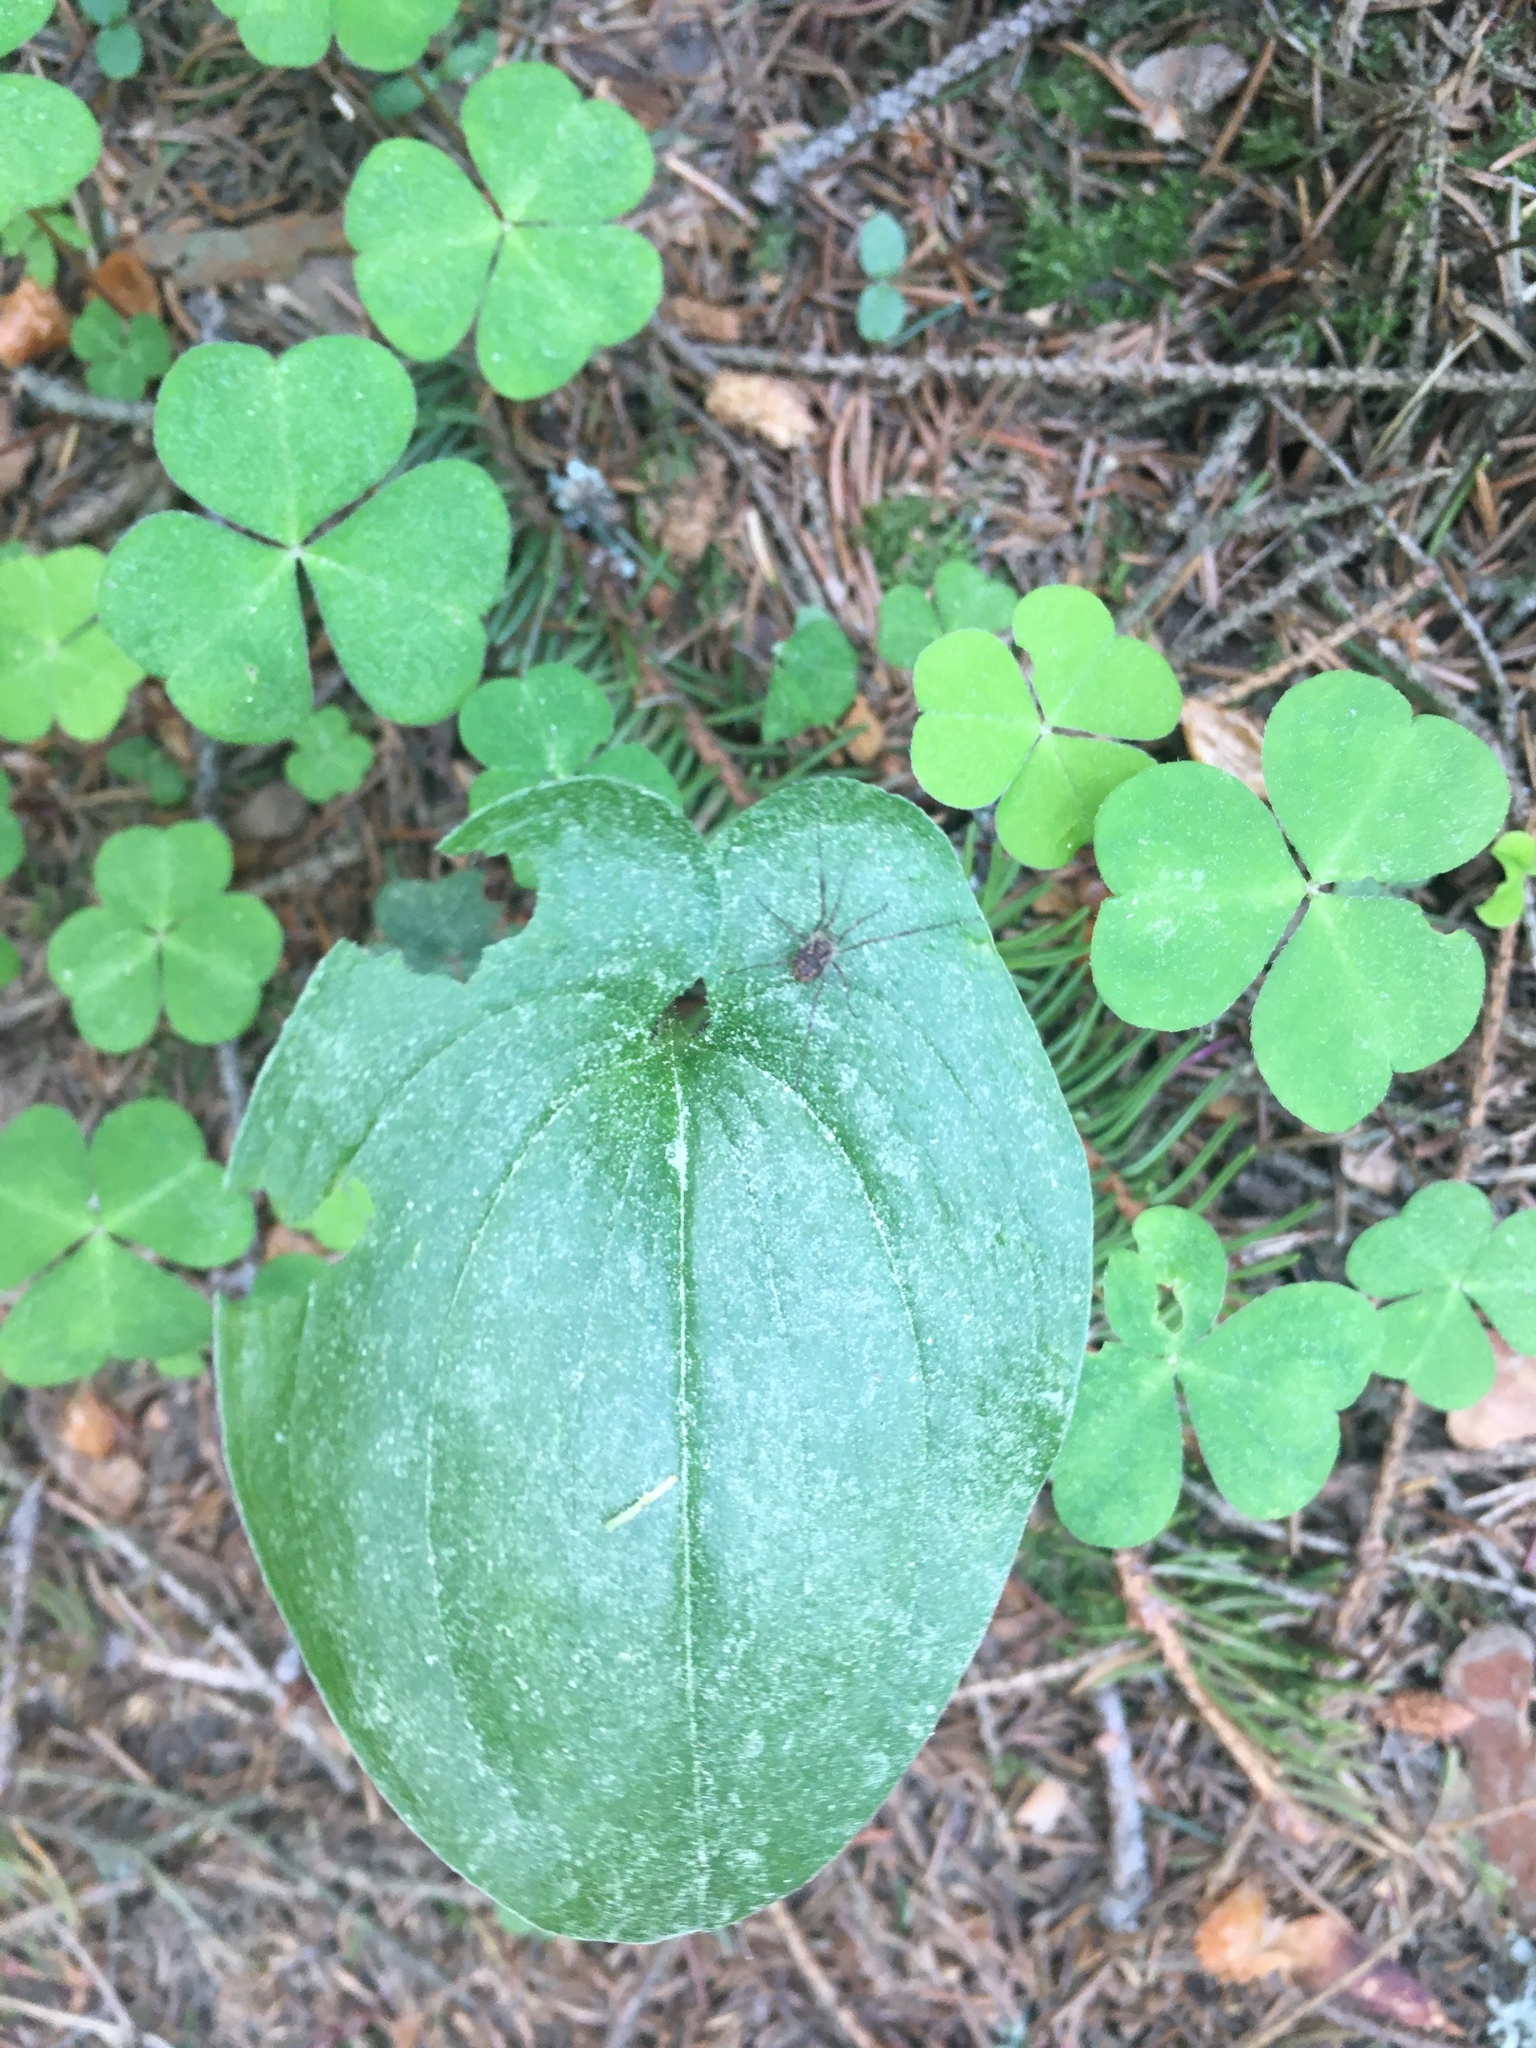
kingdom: Plantae
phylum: Tracheophyta
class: Liliopsida
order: Asparagales
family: Asparagaceae
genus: Maianthemum
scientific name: Maianthemum bifolium
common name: May lily
